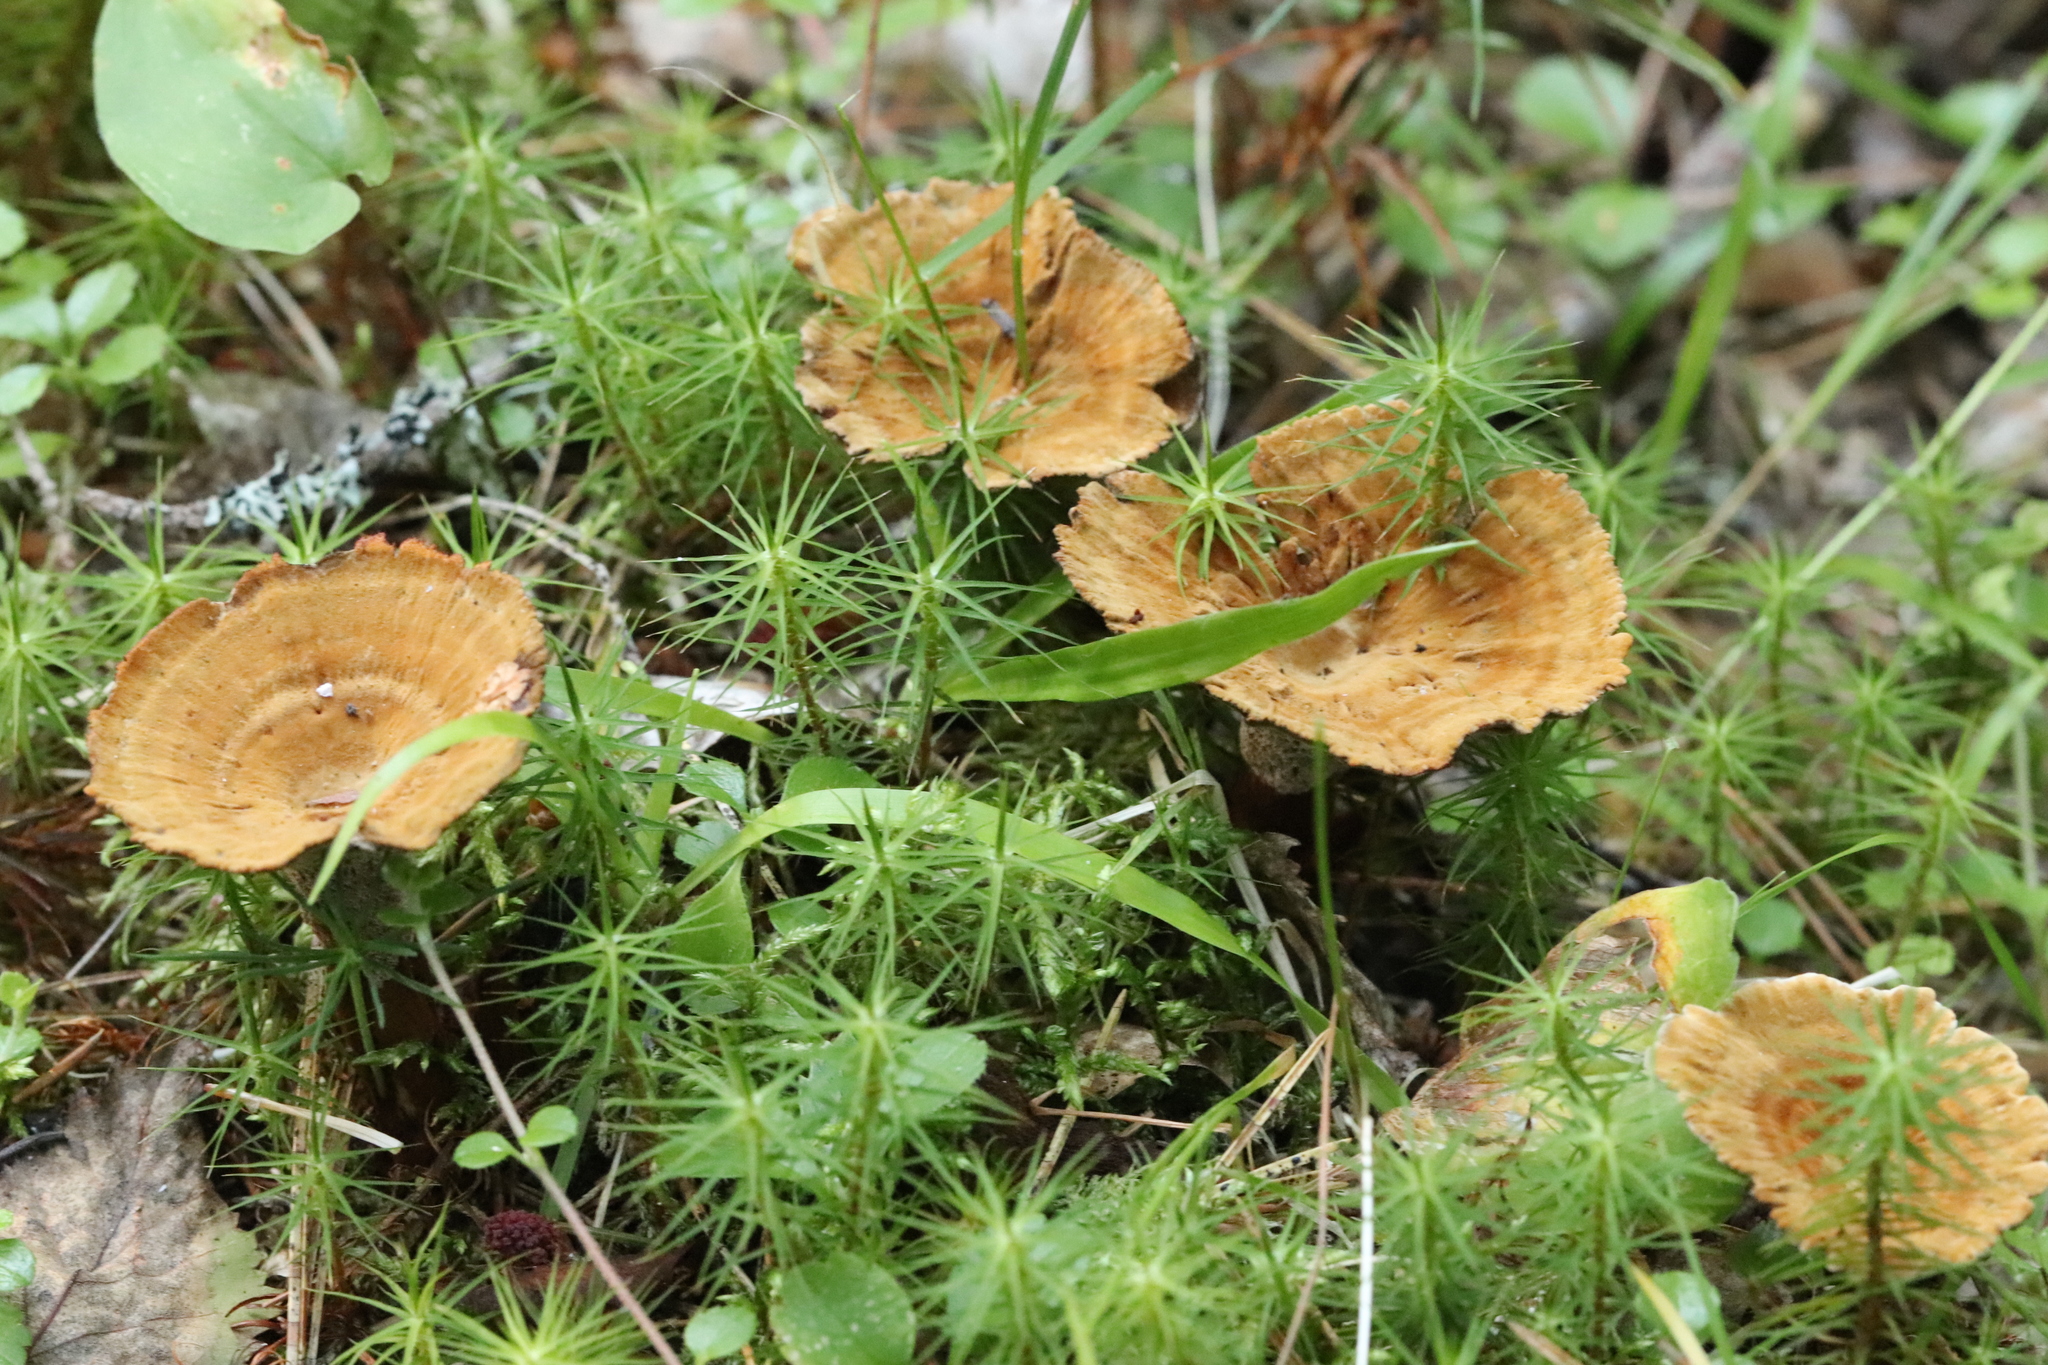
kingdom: Fungi
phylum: Basidiomycota
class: Agaricomycetes
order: Hymenochaetales
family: Hymenochaetaceae
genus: Coltricia
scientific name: Coltricia perennis
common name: Tiger's eye
